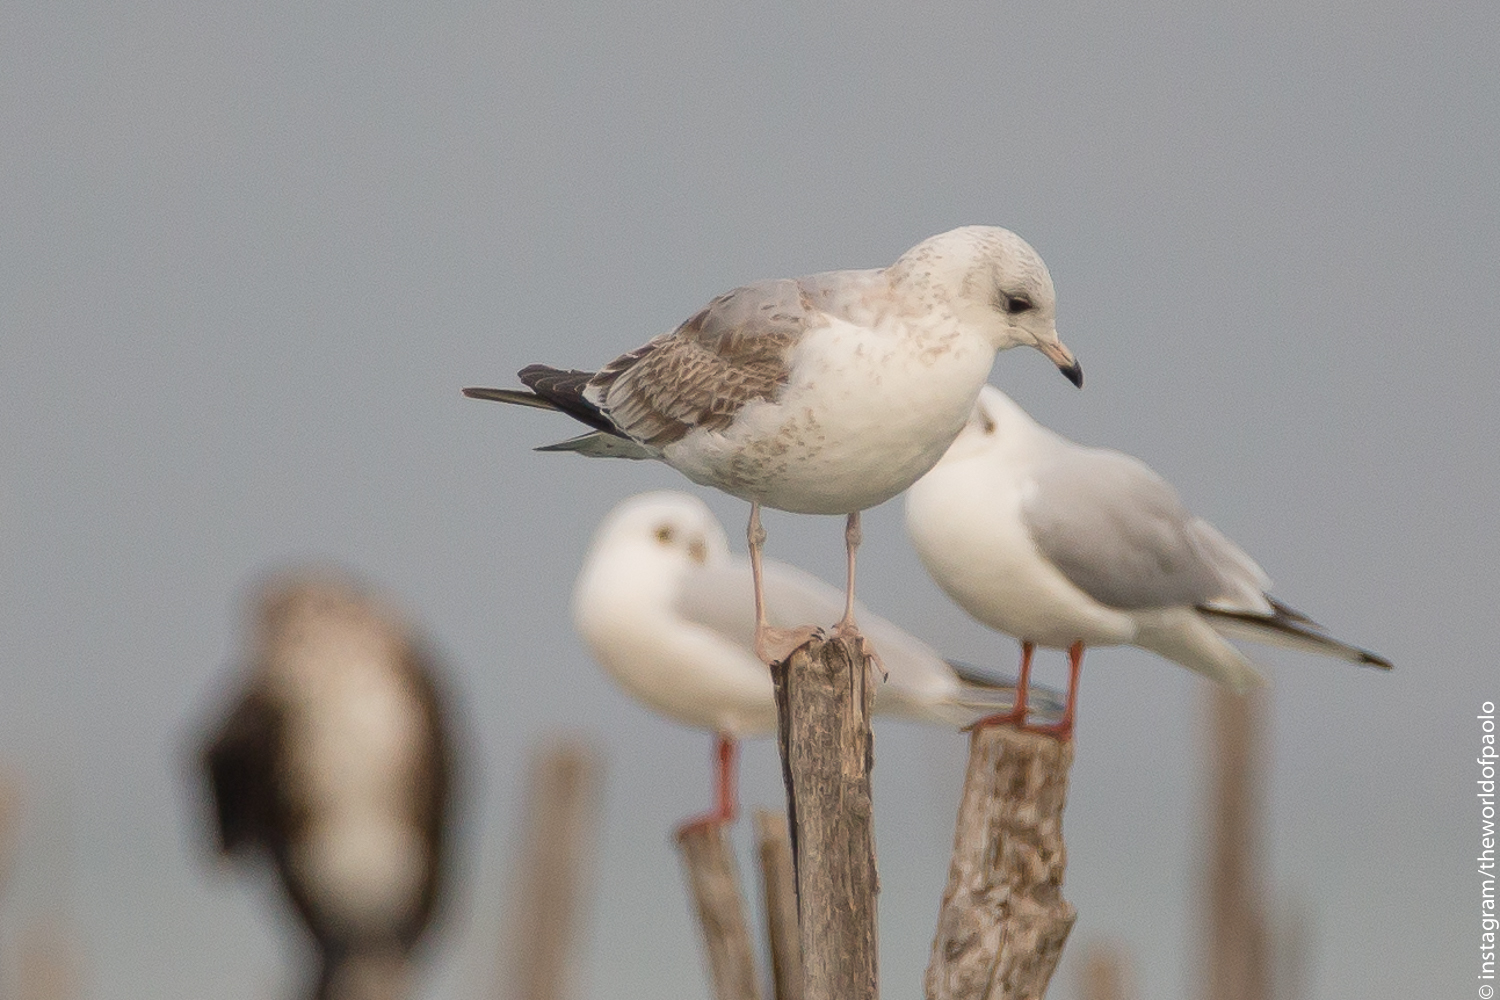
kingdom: Animalia
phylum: Chordata
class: Aves
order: Charadriiformes
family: Laridae
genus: Larus
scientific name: Larus canus
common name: Mew gull
